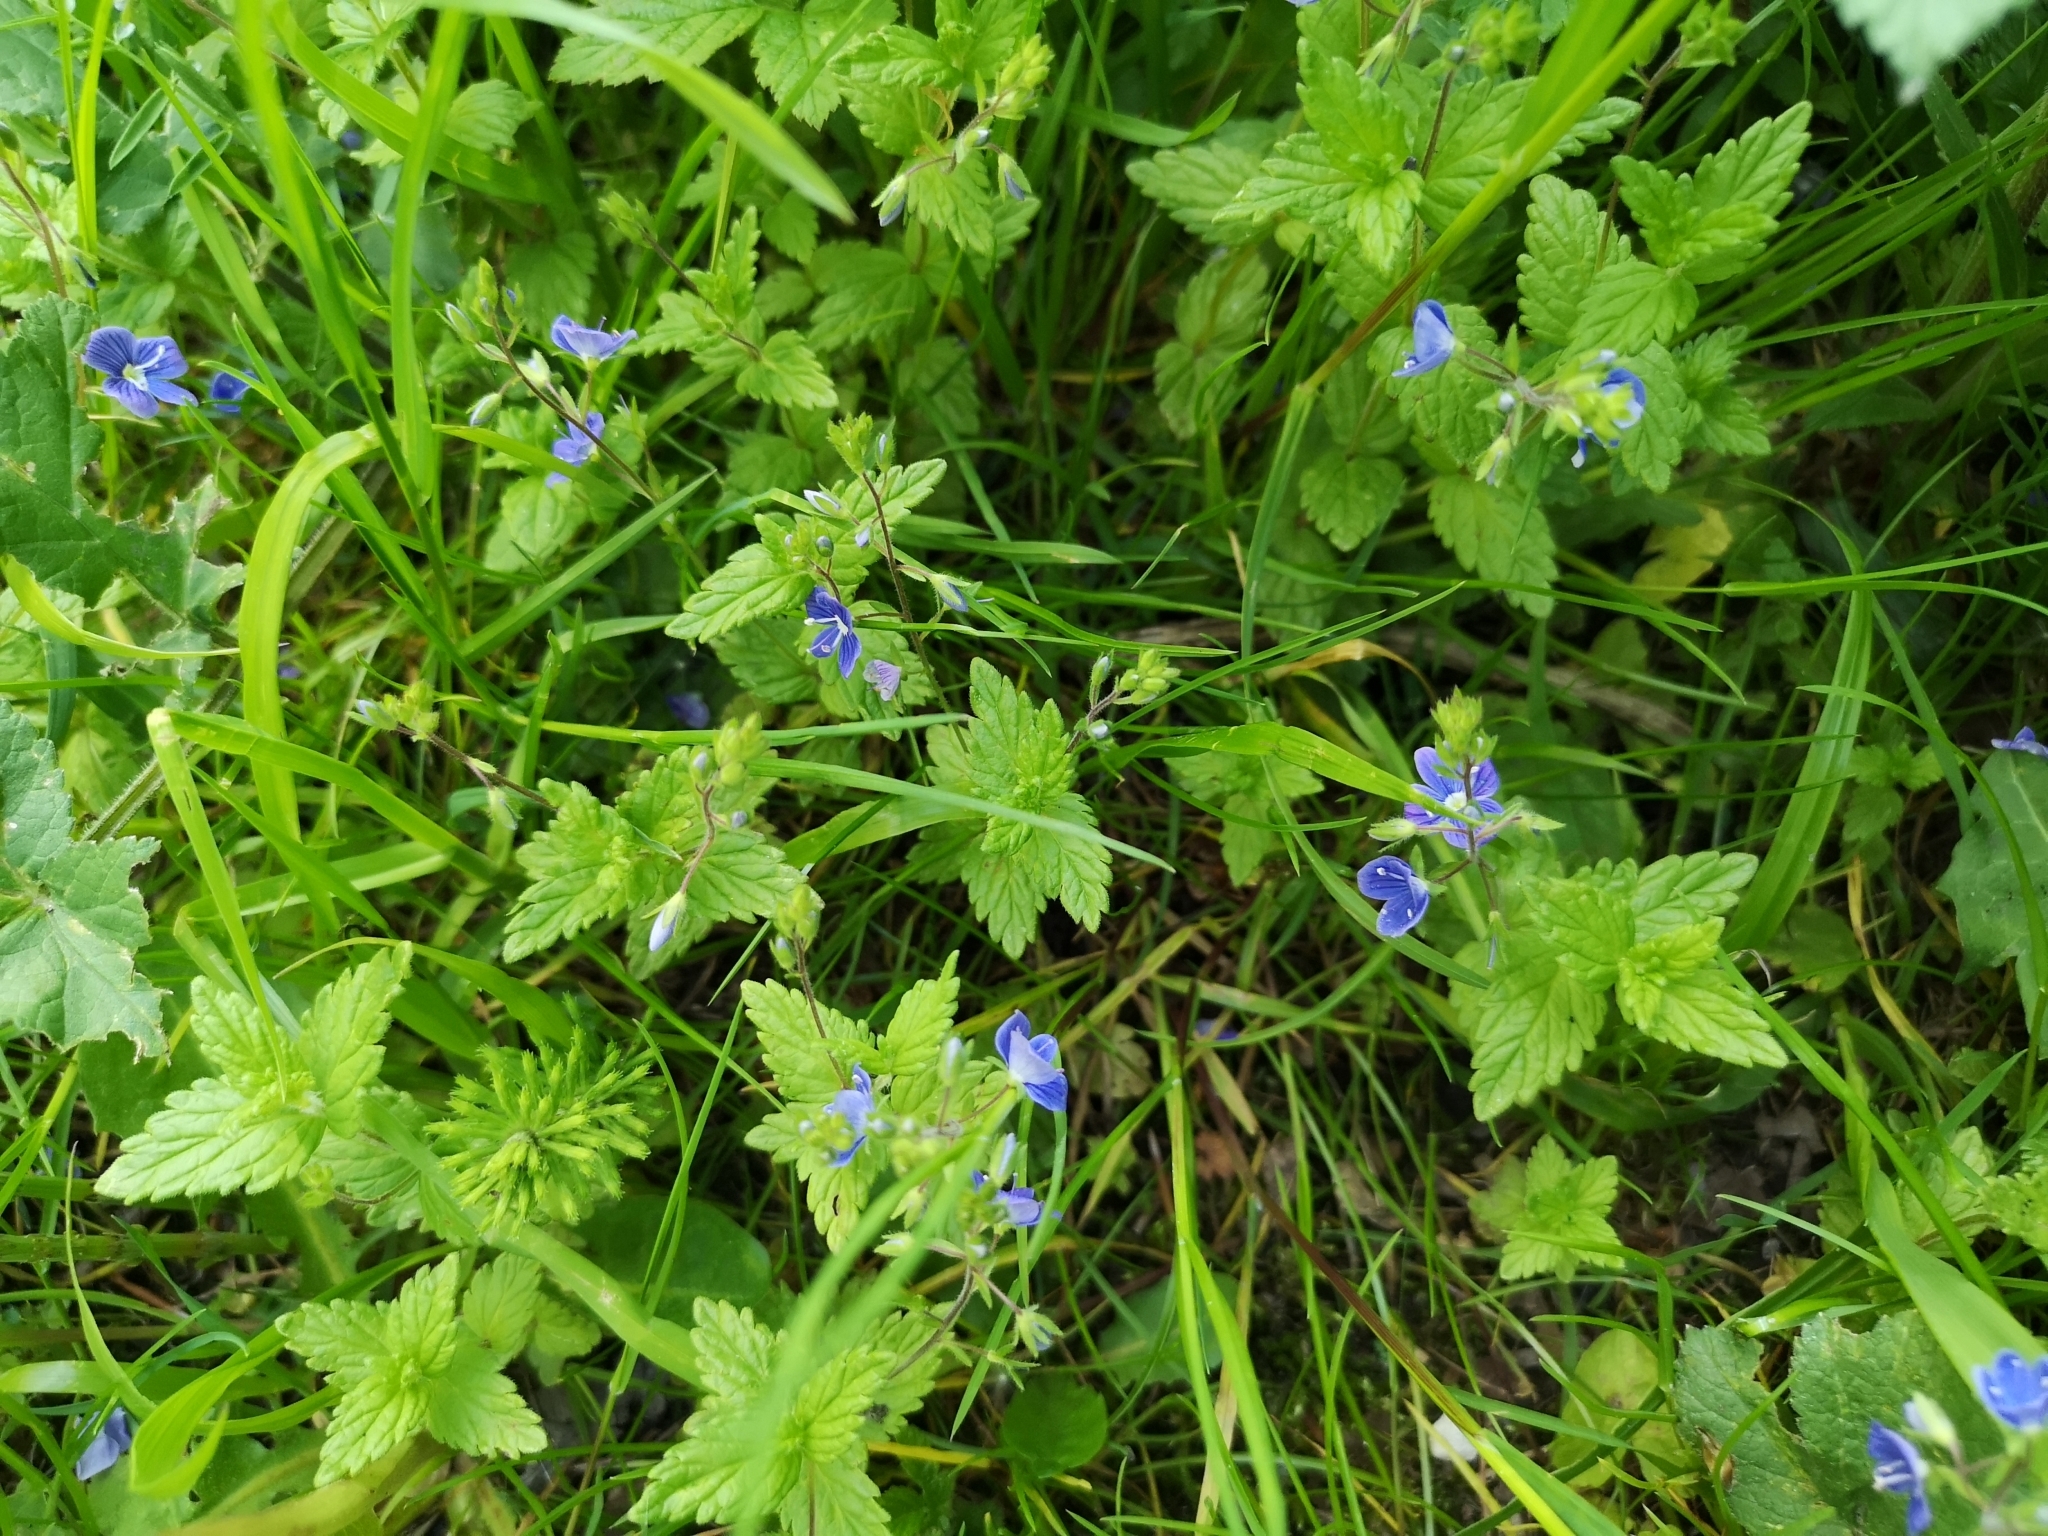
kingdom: Plantae
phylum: Tracheophyta
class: Magnoliopsida
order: Lamiales
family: Plantaginaceae
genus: Veronica
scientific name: Veronica chamaedrys
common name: Germander speedwell
